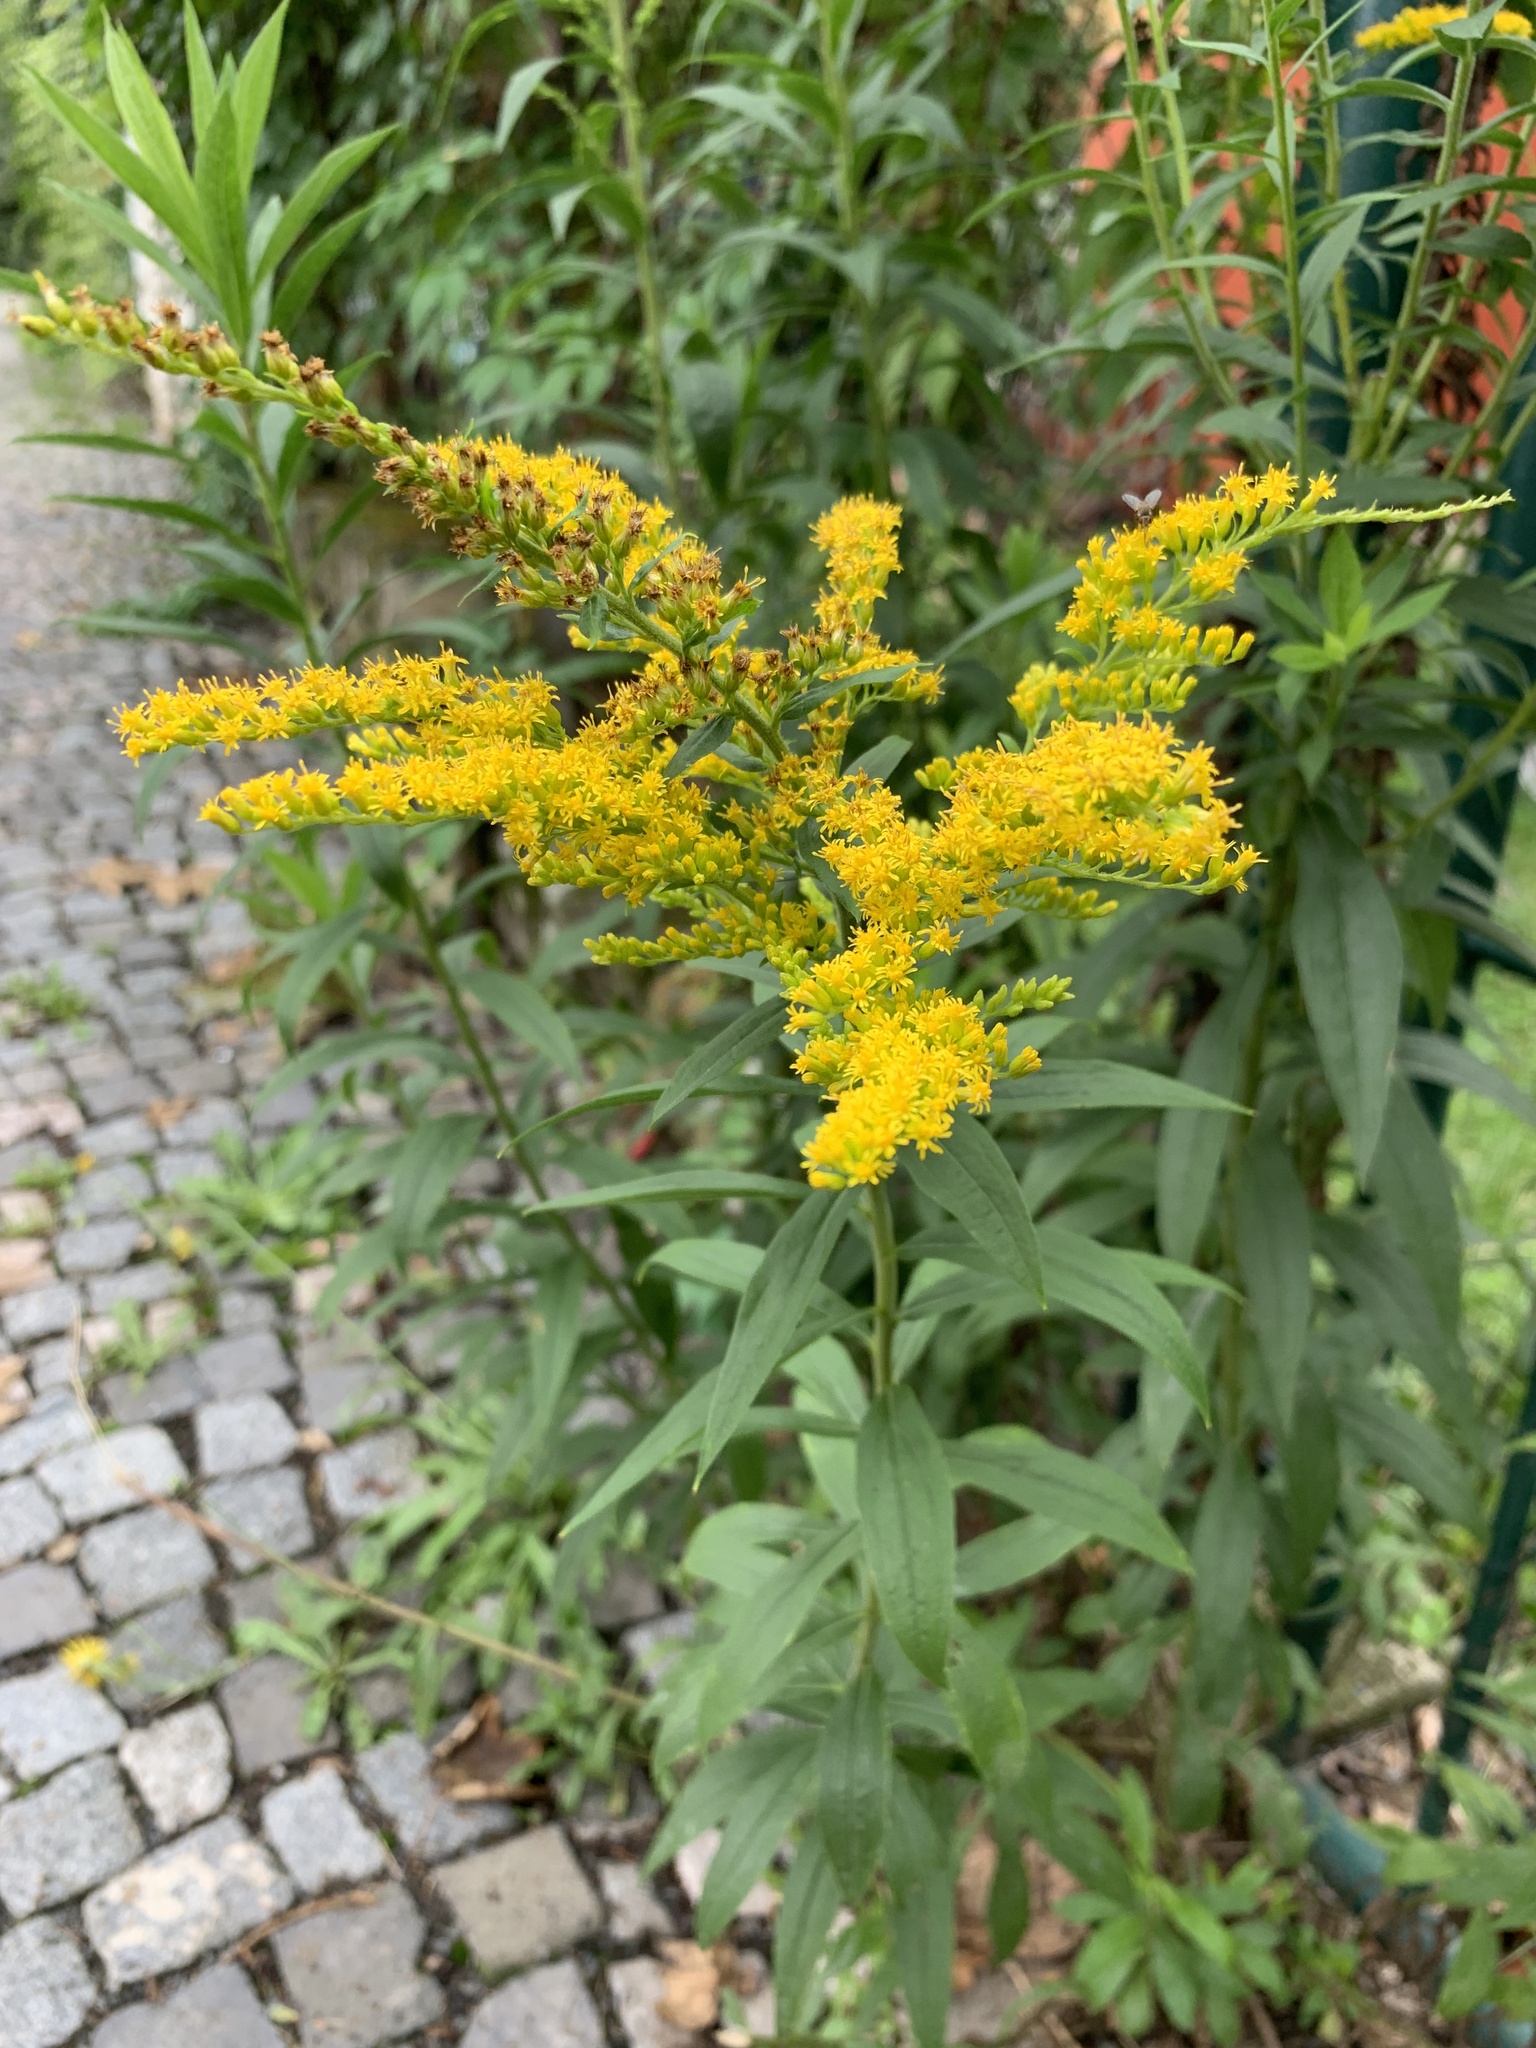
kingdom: Plantae
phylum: Tracheophyta
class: Magnoliopsida
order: Asterales
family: Asteraceae
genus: Solidago
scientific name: Solidago canadensis
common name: Canada goldenrod
